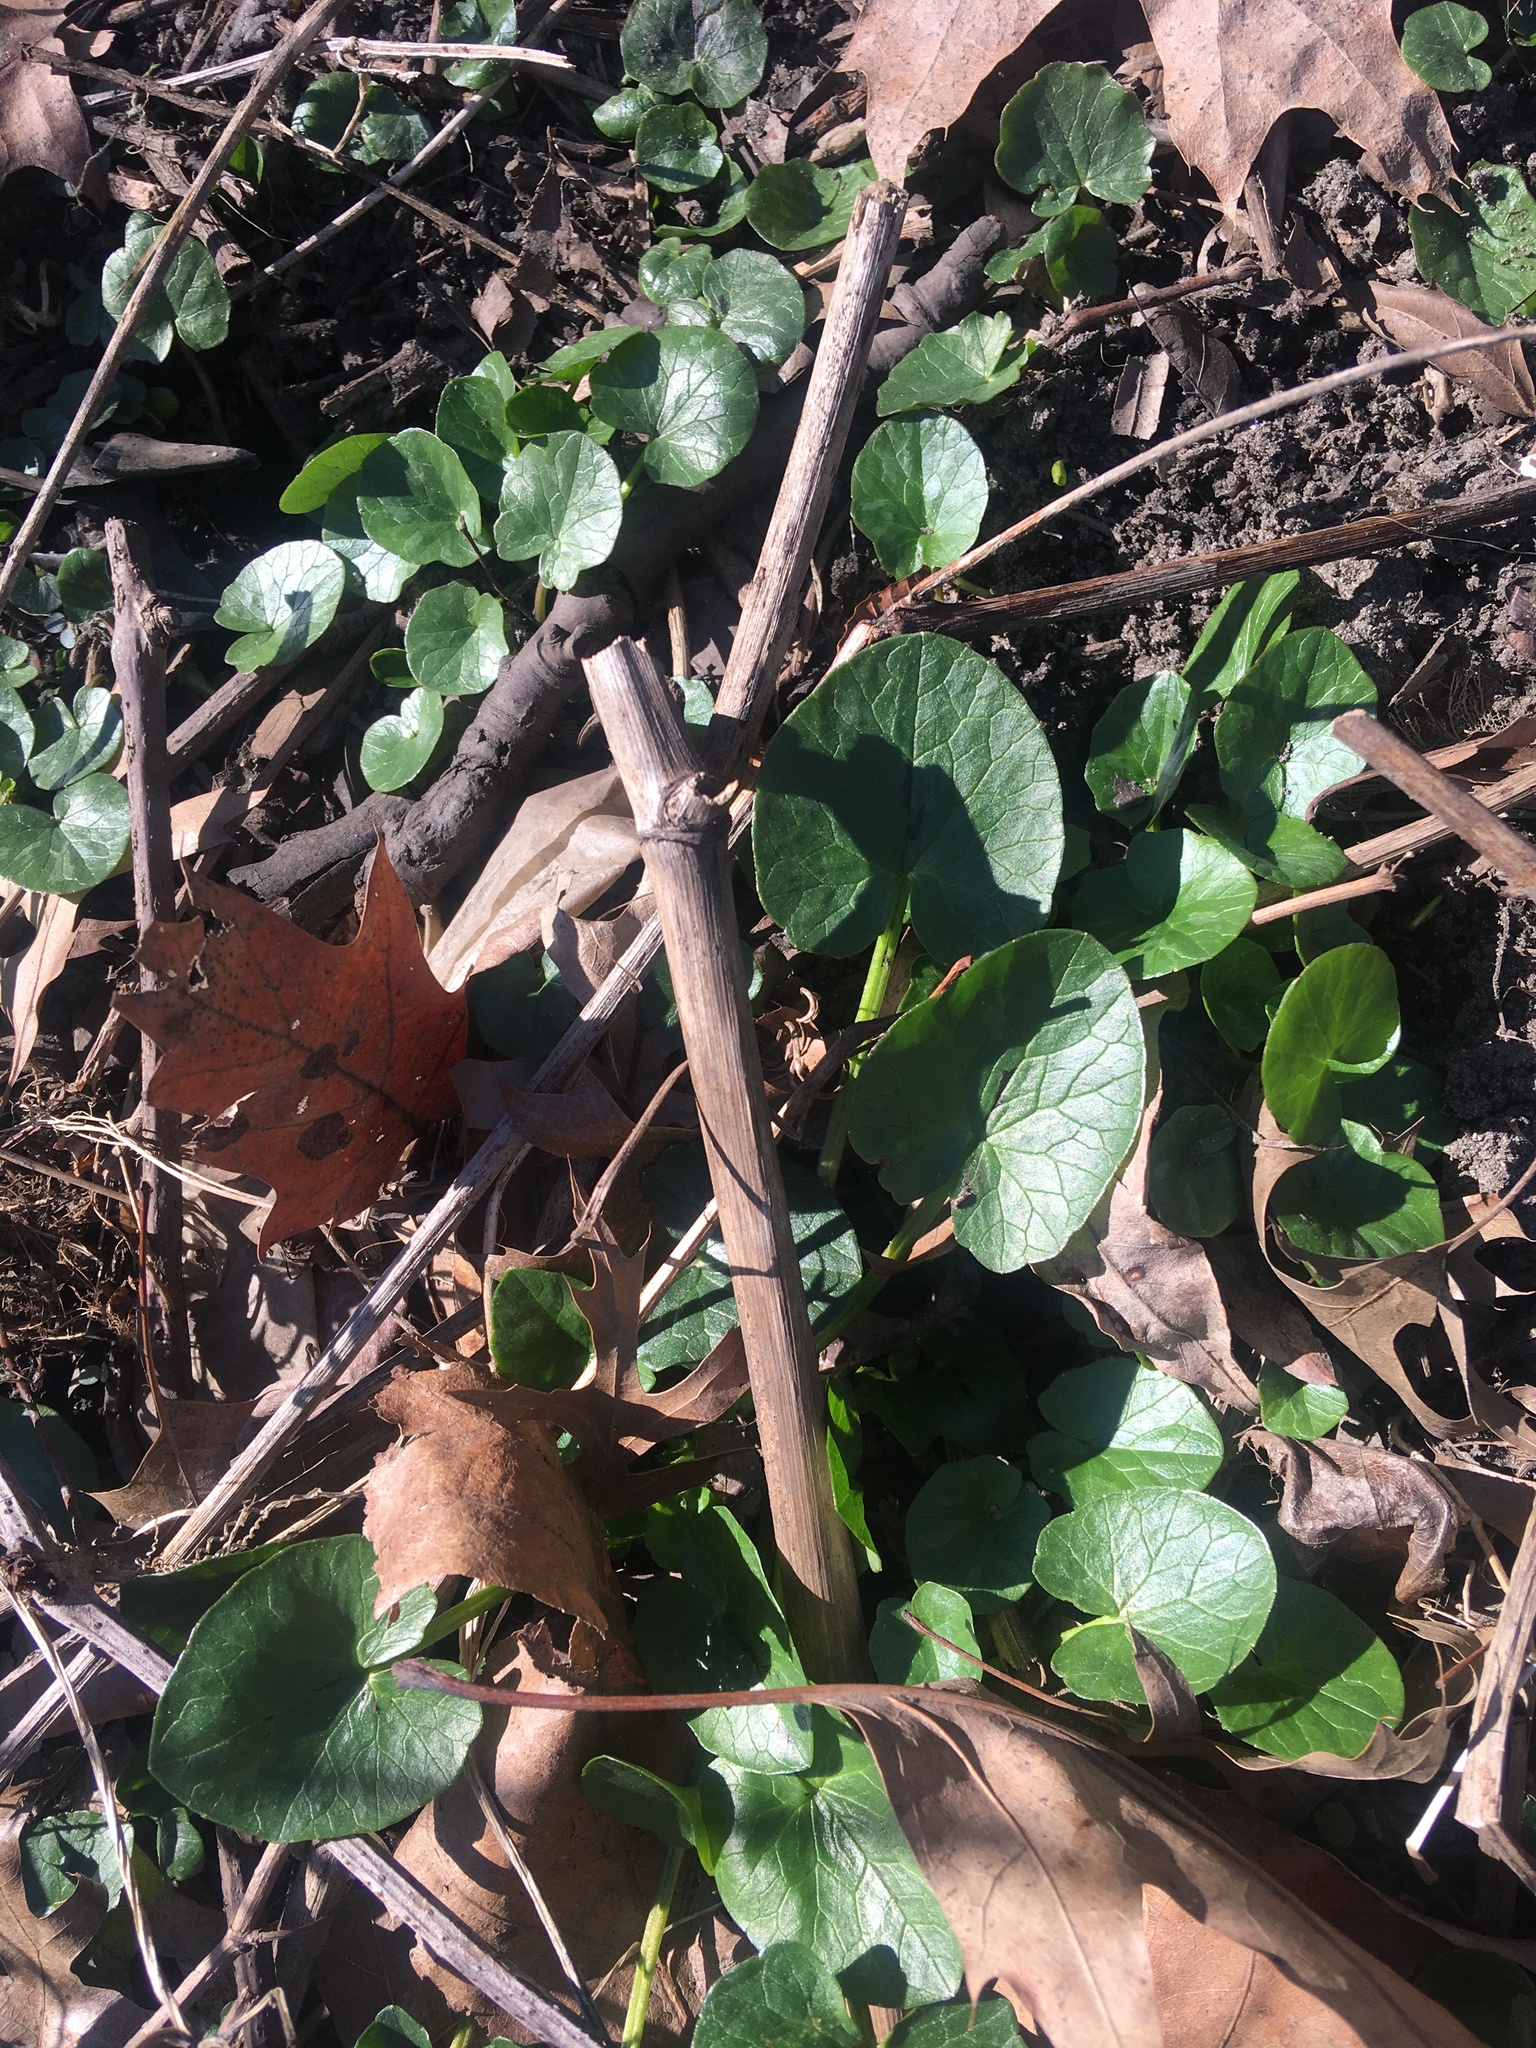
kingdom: Plantae
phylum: Tracheophyta
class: Magnoliopsida
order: Ranunculales
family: Ranunculaceae
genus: Ficaria
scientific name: Ficaria verna
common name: Lesser celandine
